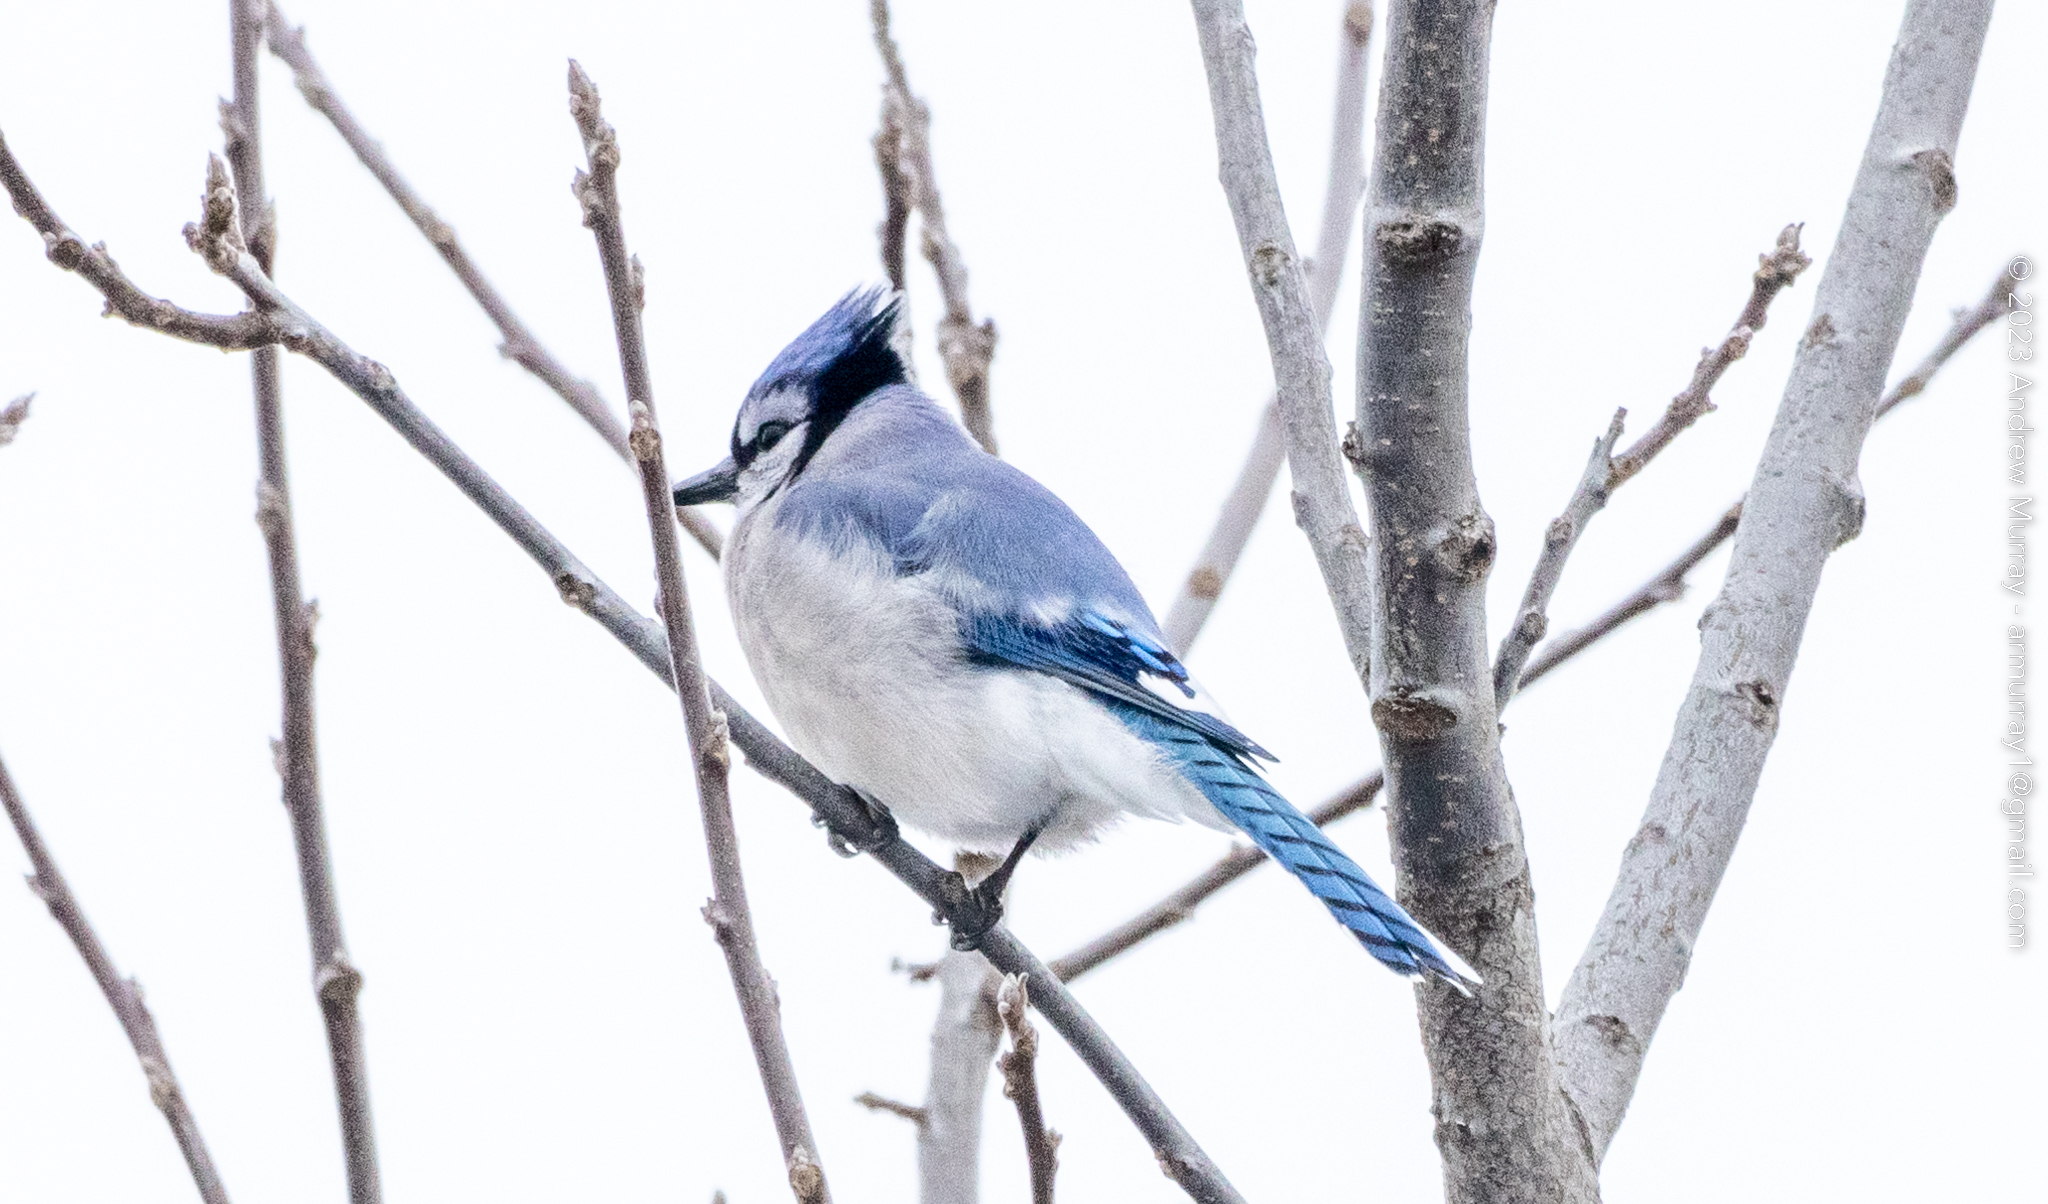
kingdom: Animalia
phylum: Chordata
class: Aves
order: Passeriformes
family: Corvidae
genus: Cyanocitta
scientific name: Cyanocitta cristata
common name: Blue jay
